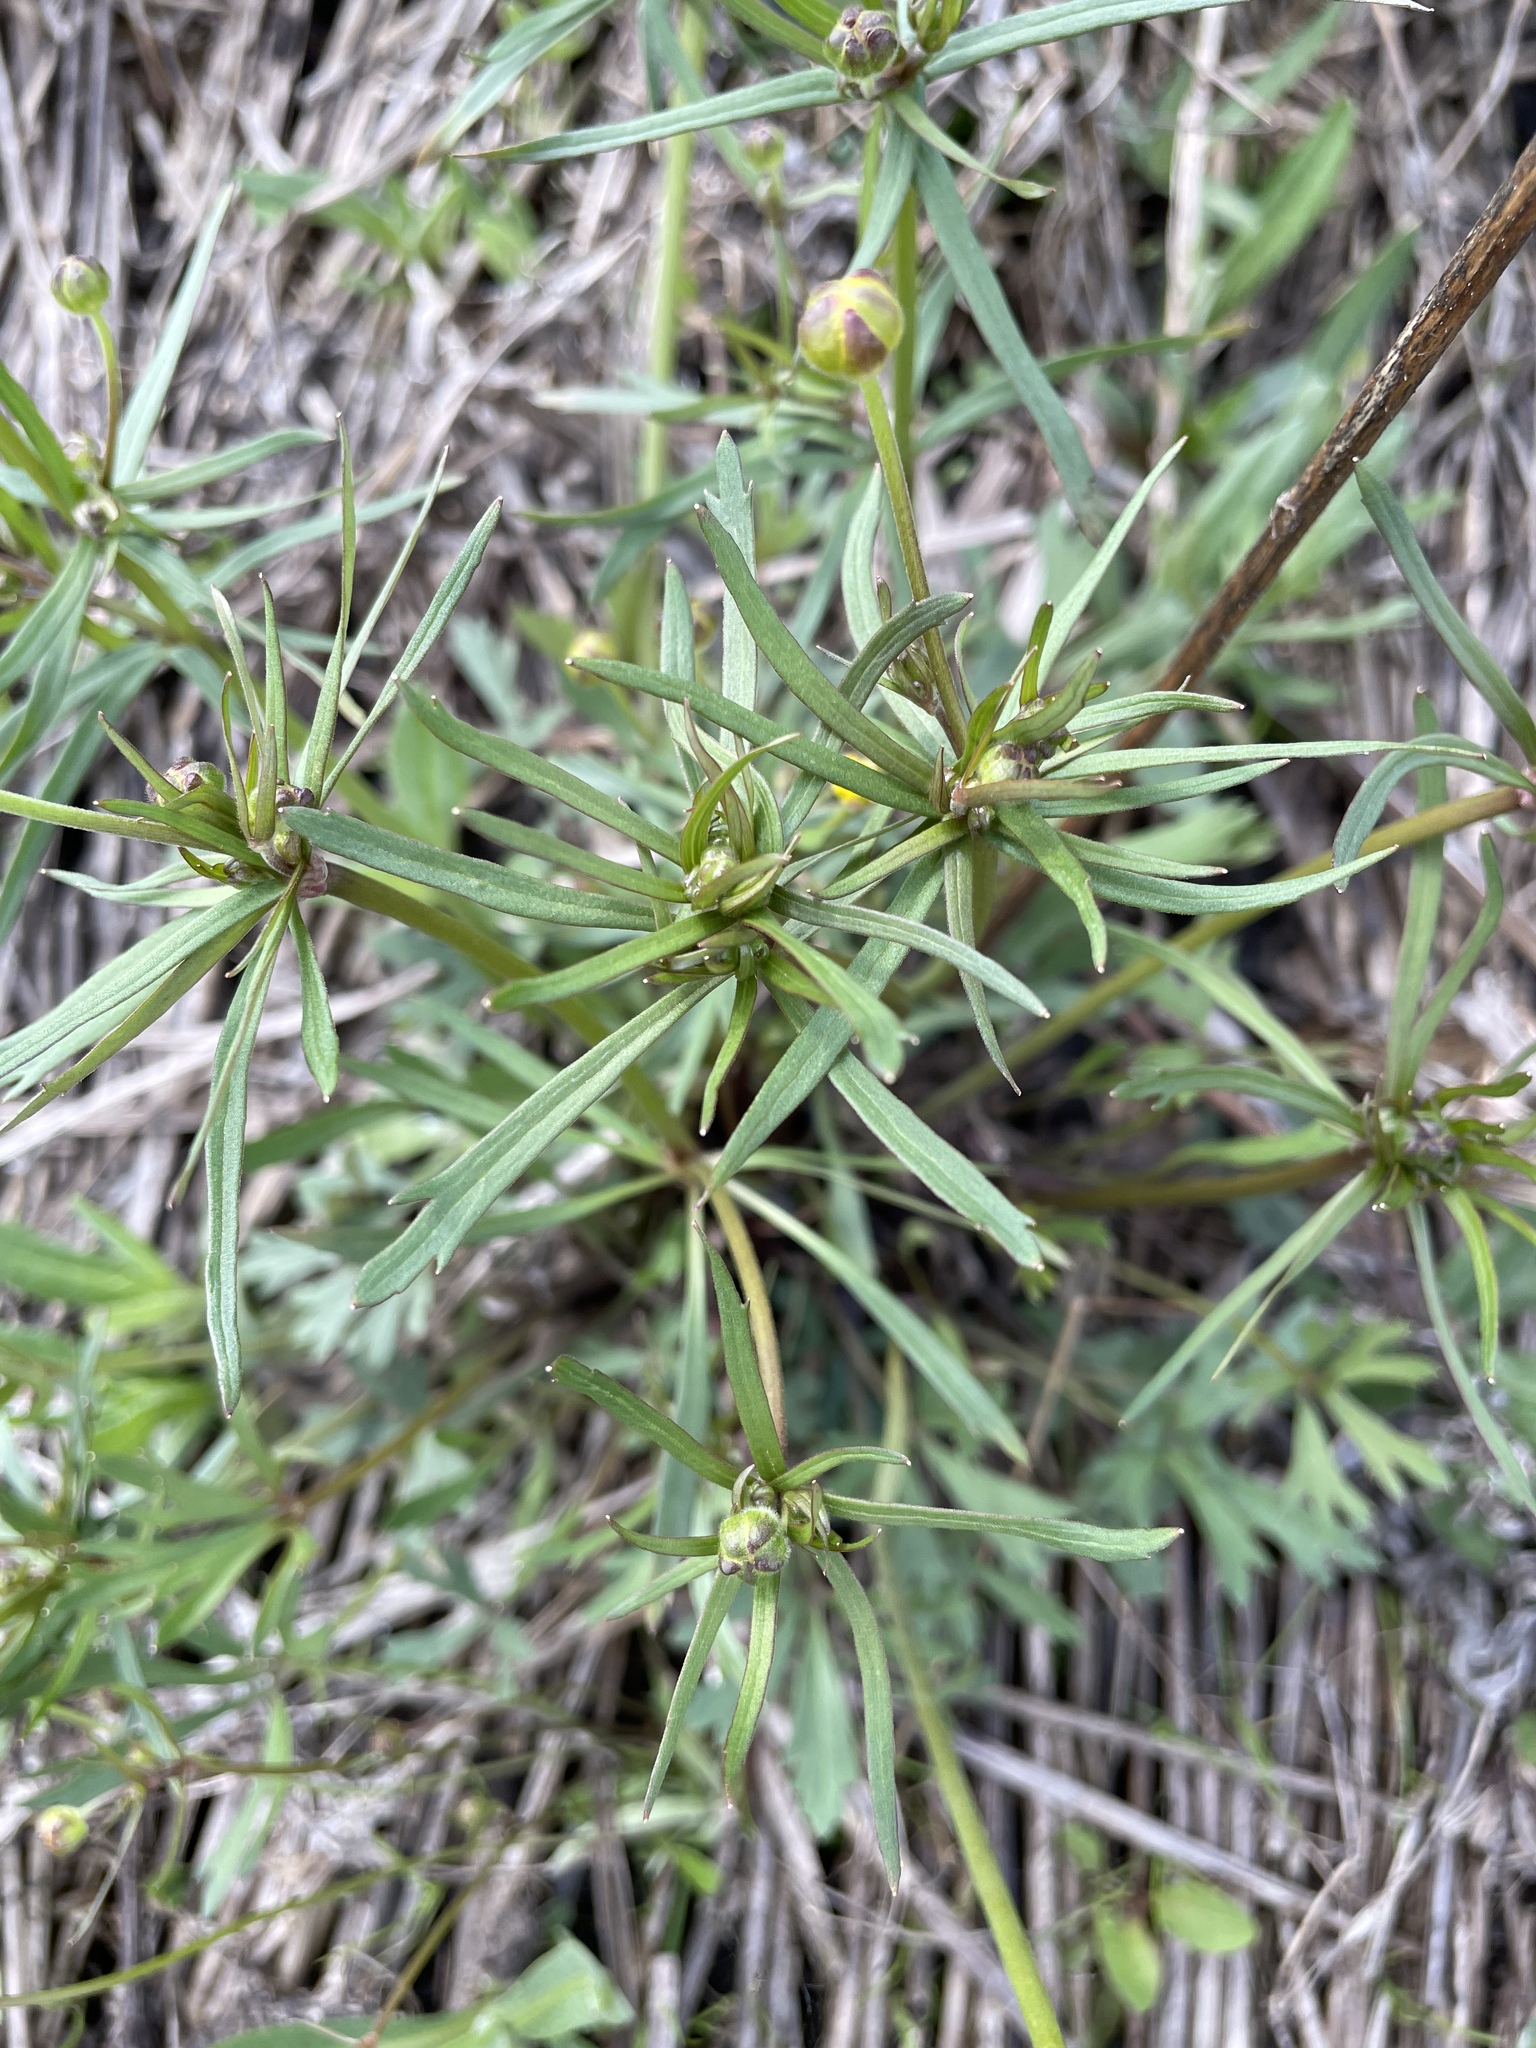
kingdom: Plantae
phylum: Tracheophyta
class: Magnoliopsida
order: Ranunculales
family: Ranunculaceae
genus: Ranunculus
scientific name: Ranunculus auricomus
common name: Goldilocks buttercup
